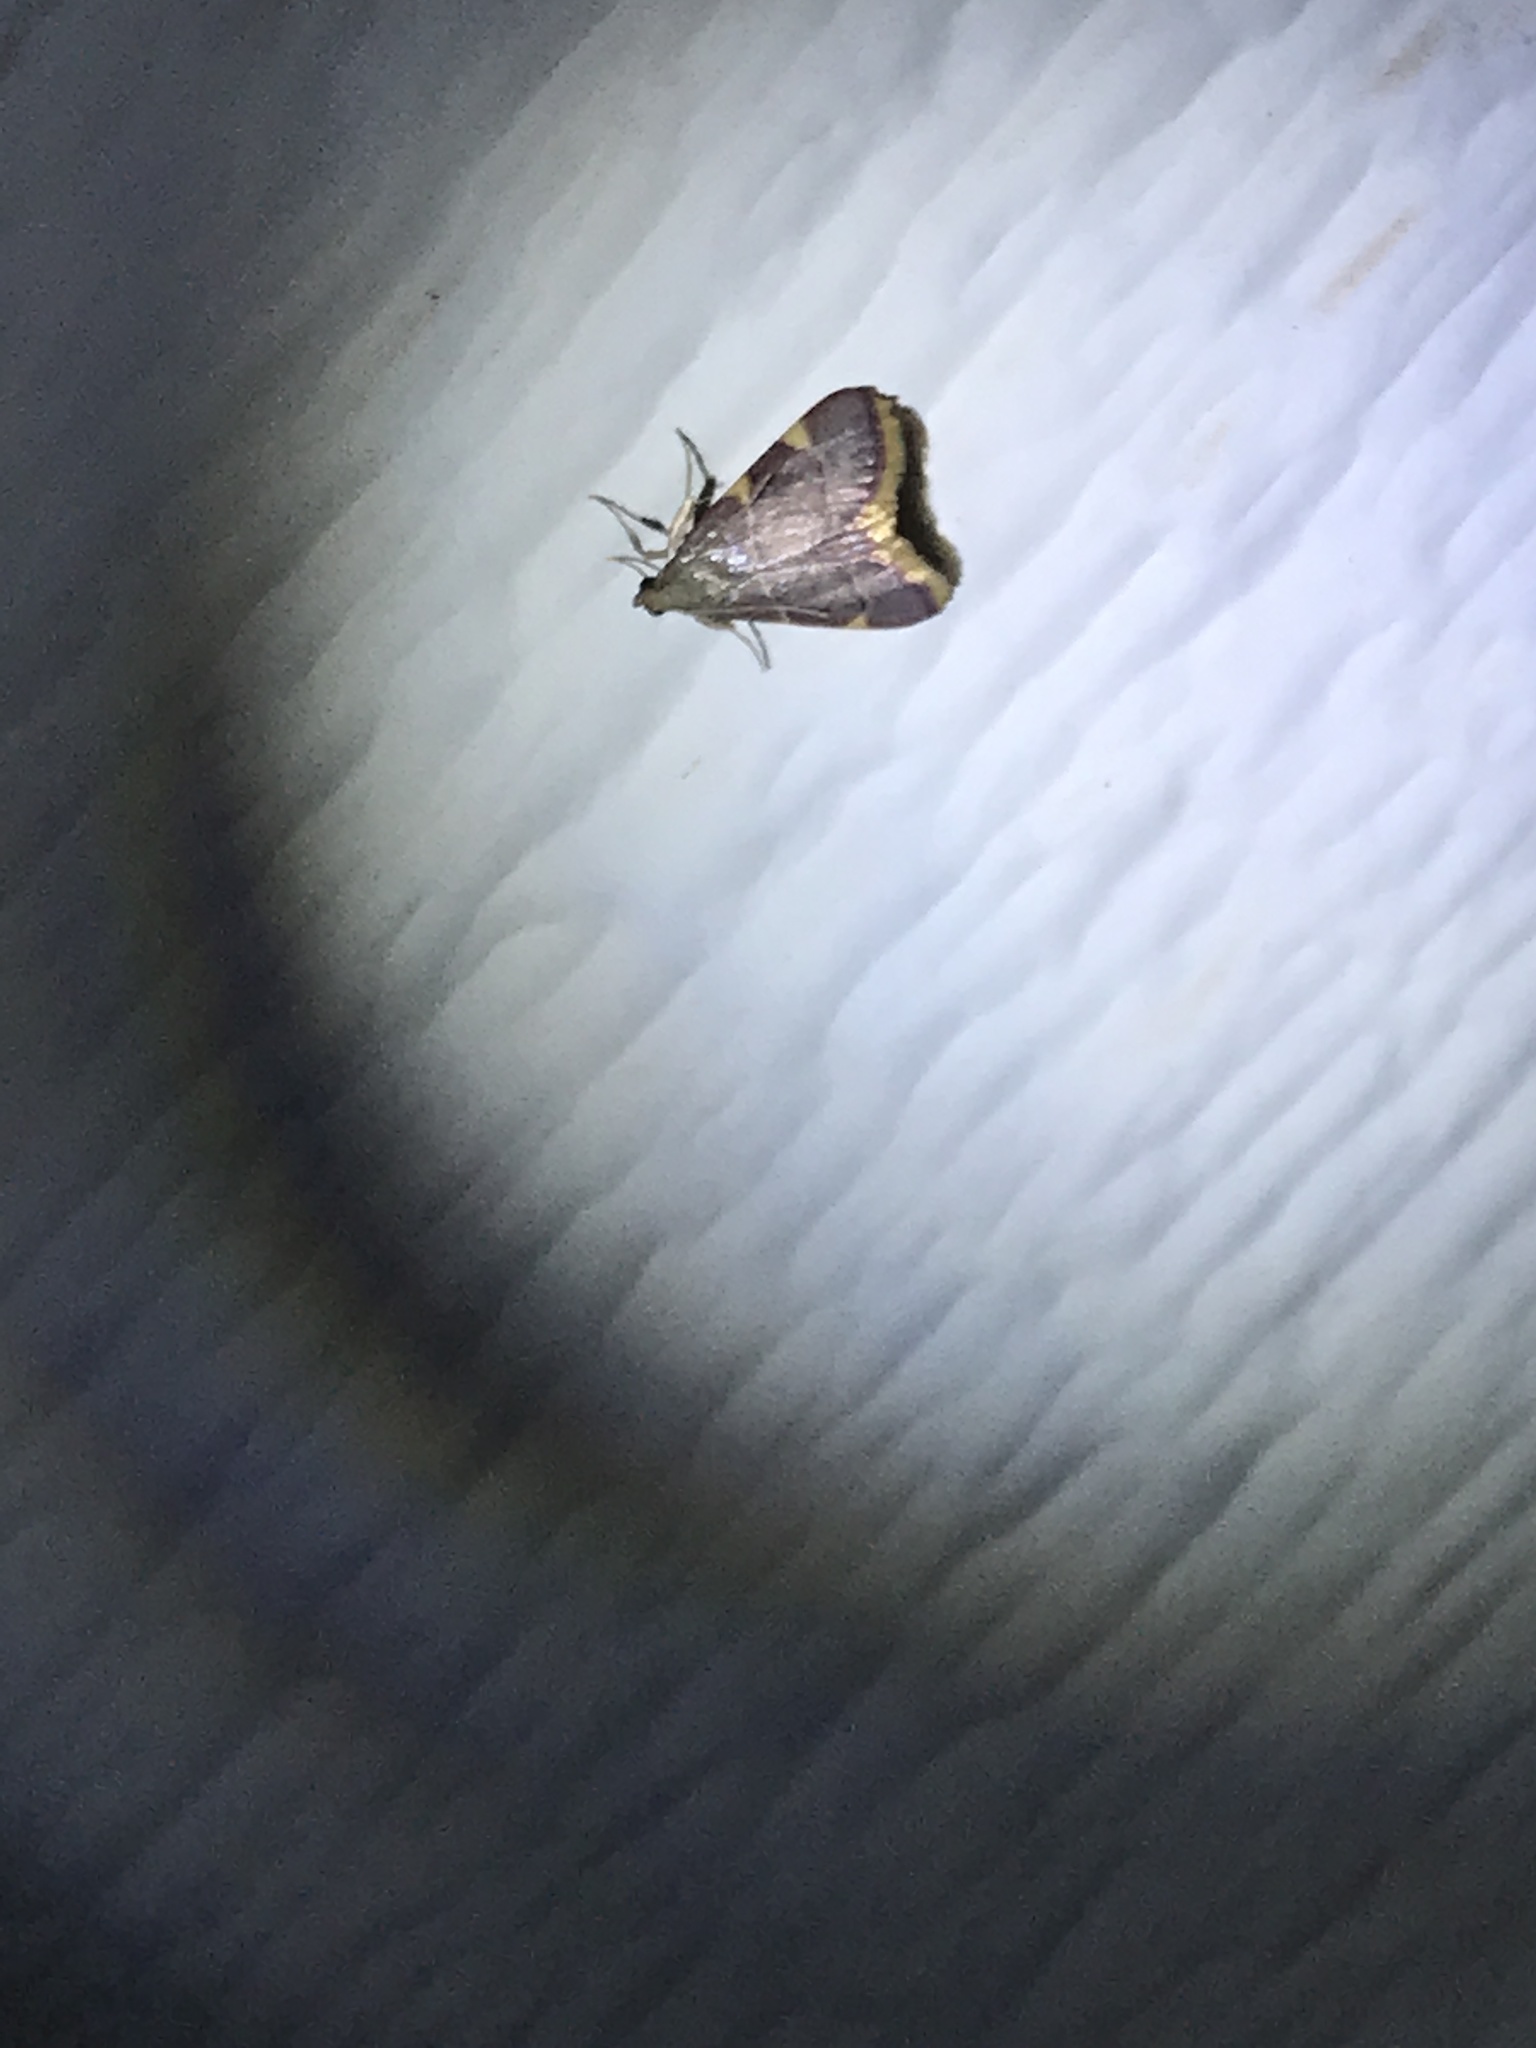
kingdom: Animalia
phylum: Arthropoda
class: Insecta
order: Lepidoptera
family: Pyralidae
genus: Hypsopygia
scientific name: Hypsopygia olinalis
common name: Yellow-fringed dolichomia moth
